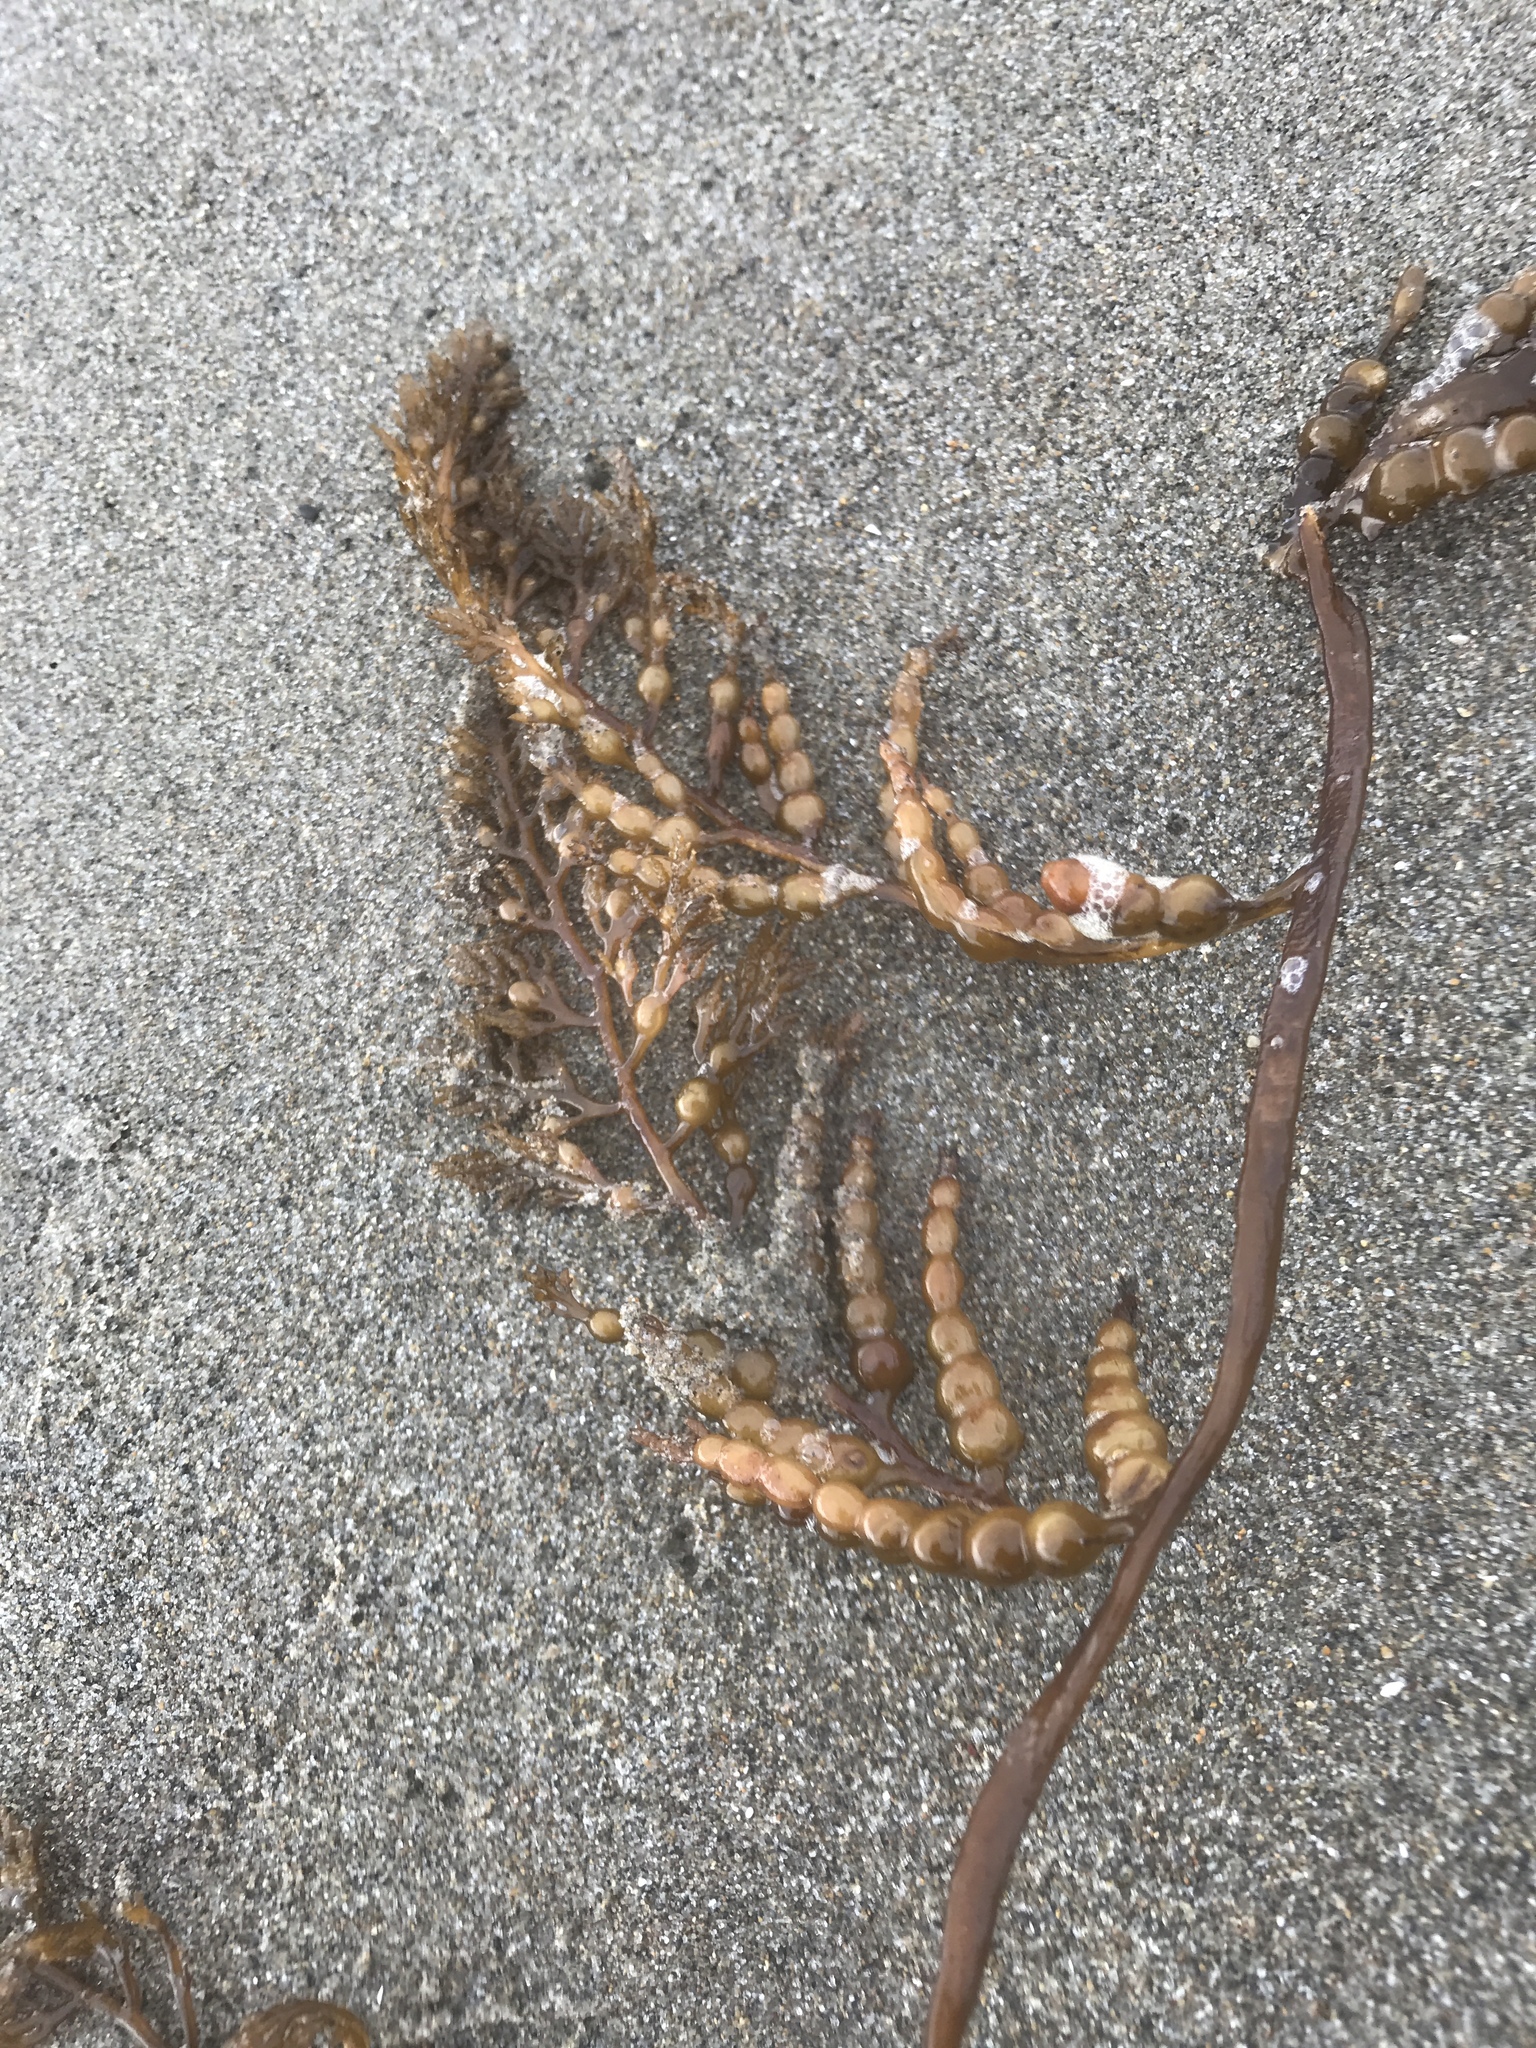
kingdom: Chromista
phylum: Ochrophyta
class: Phaeophyceae
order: Fucales
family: Sargassaceae
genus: Stephanocystis
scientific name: Stephanocystis
